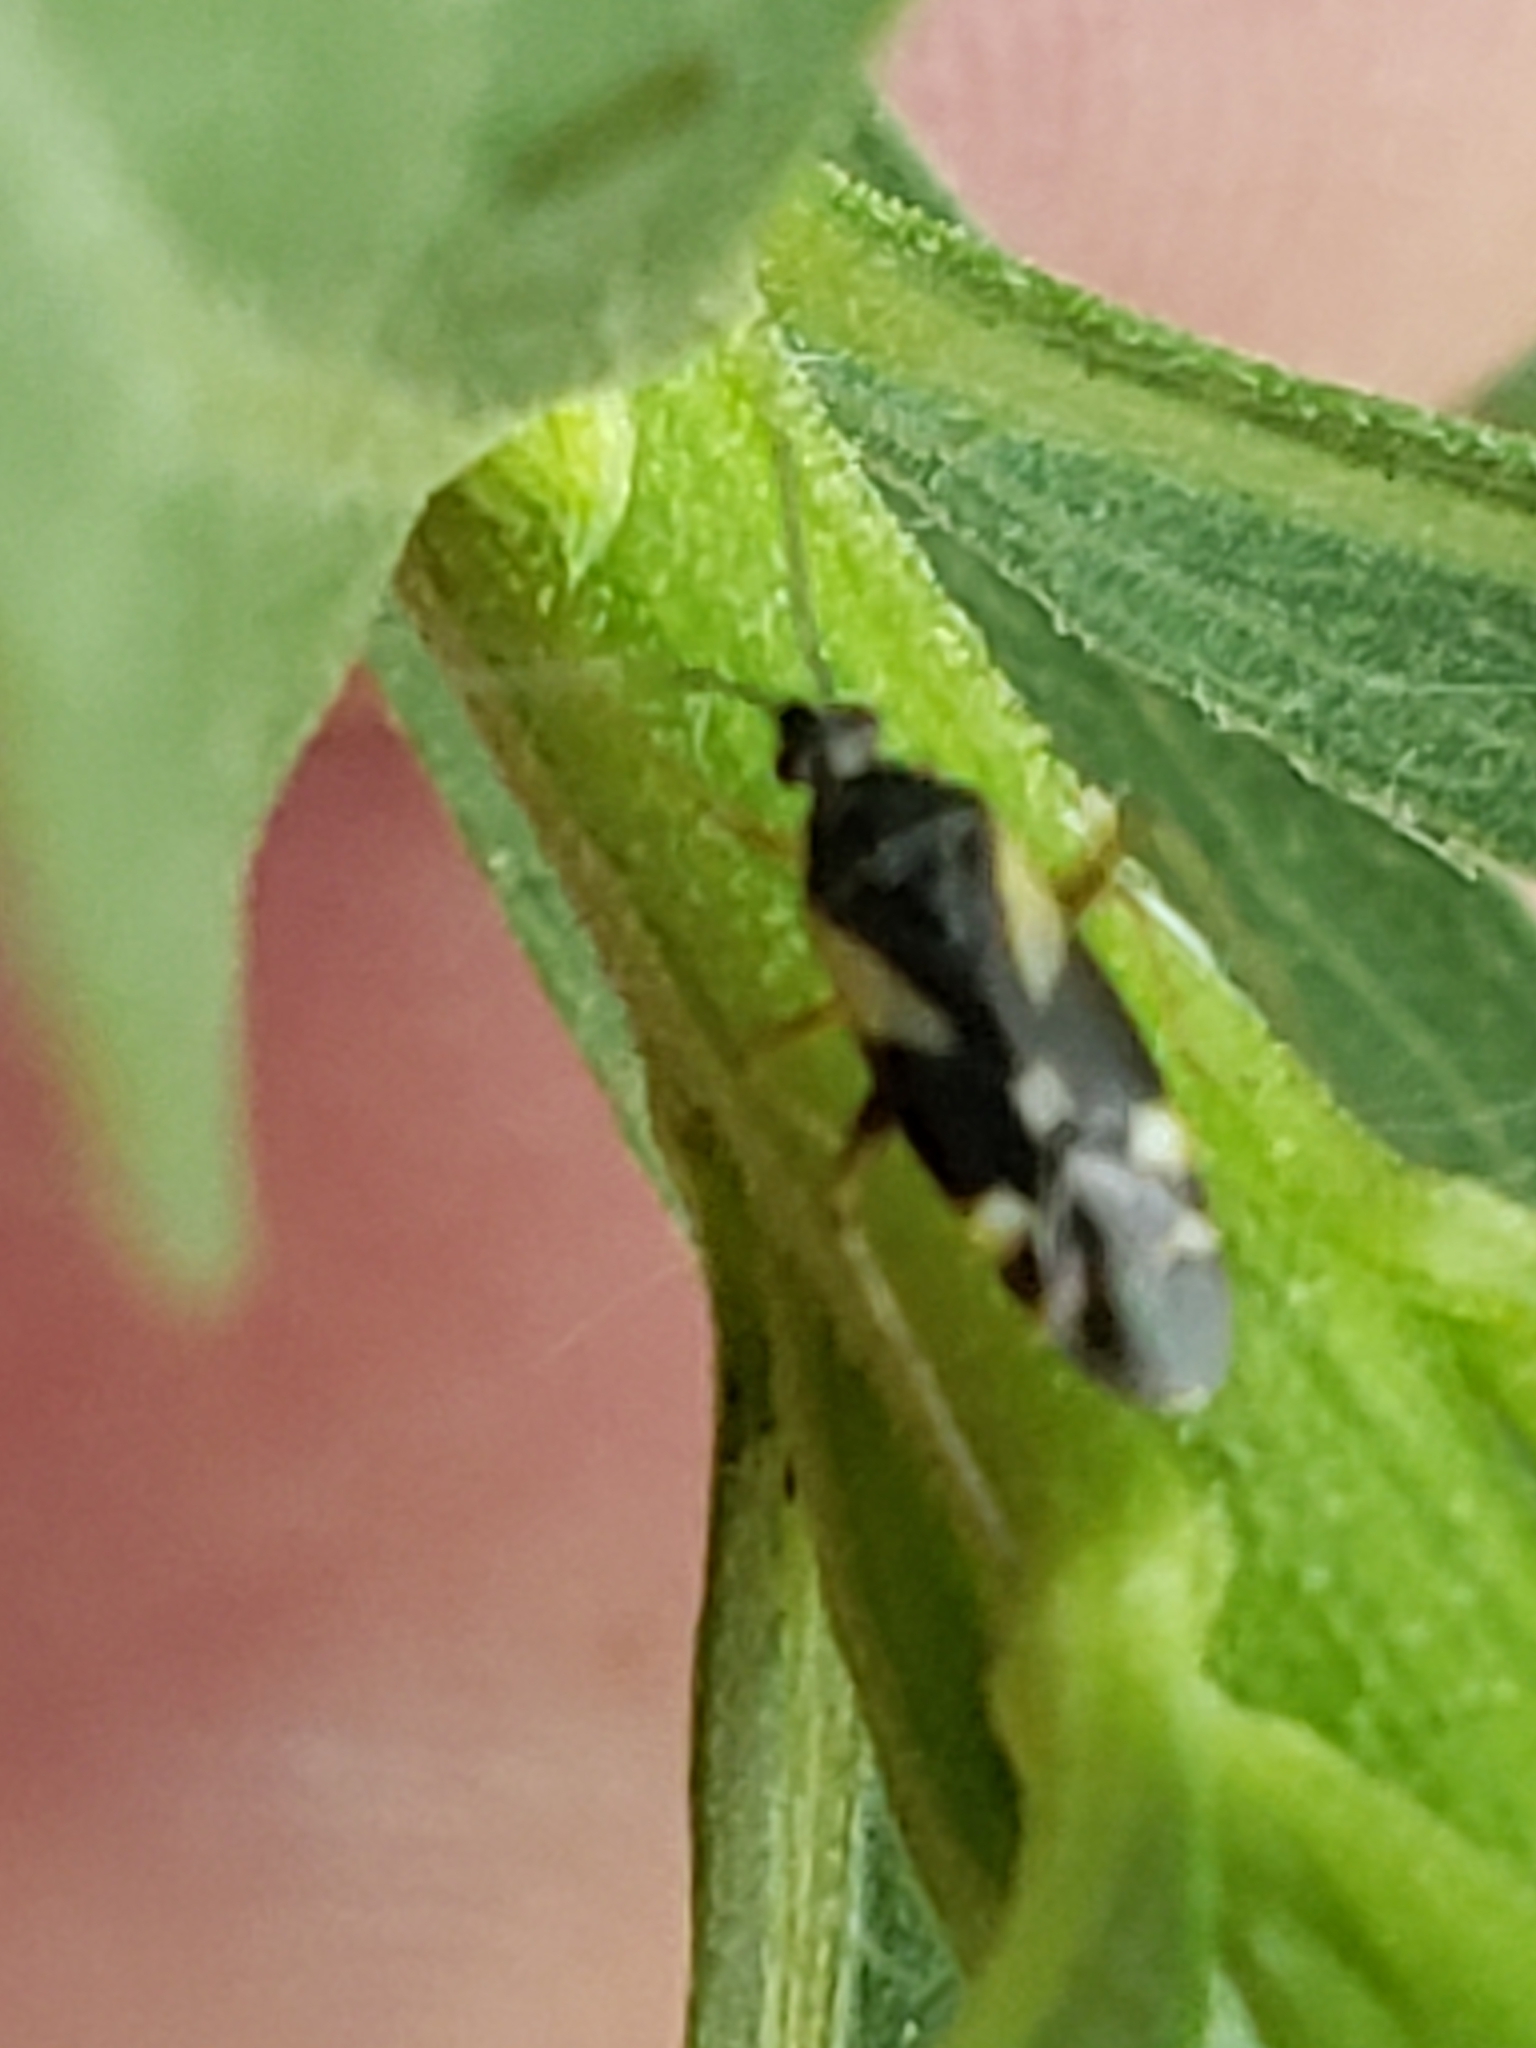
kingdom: Animalia
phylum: Arthropoda
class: Insecta
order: Hemiptera
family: Miridae
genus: Plagiognathus
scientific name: Plagiognathus obscurus
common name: Obscure plant bug
